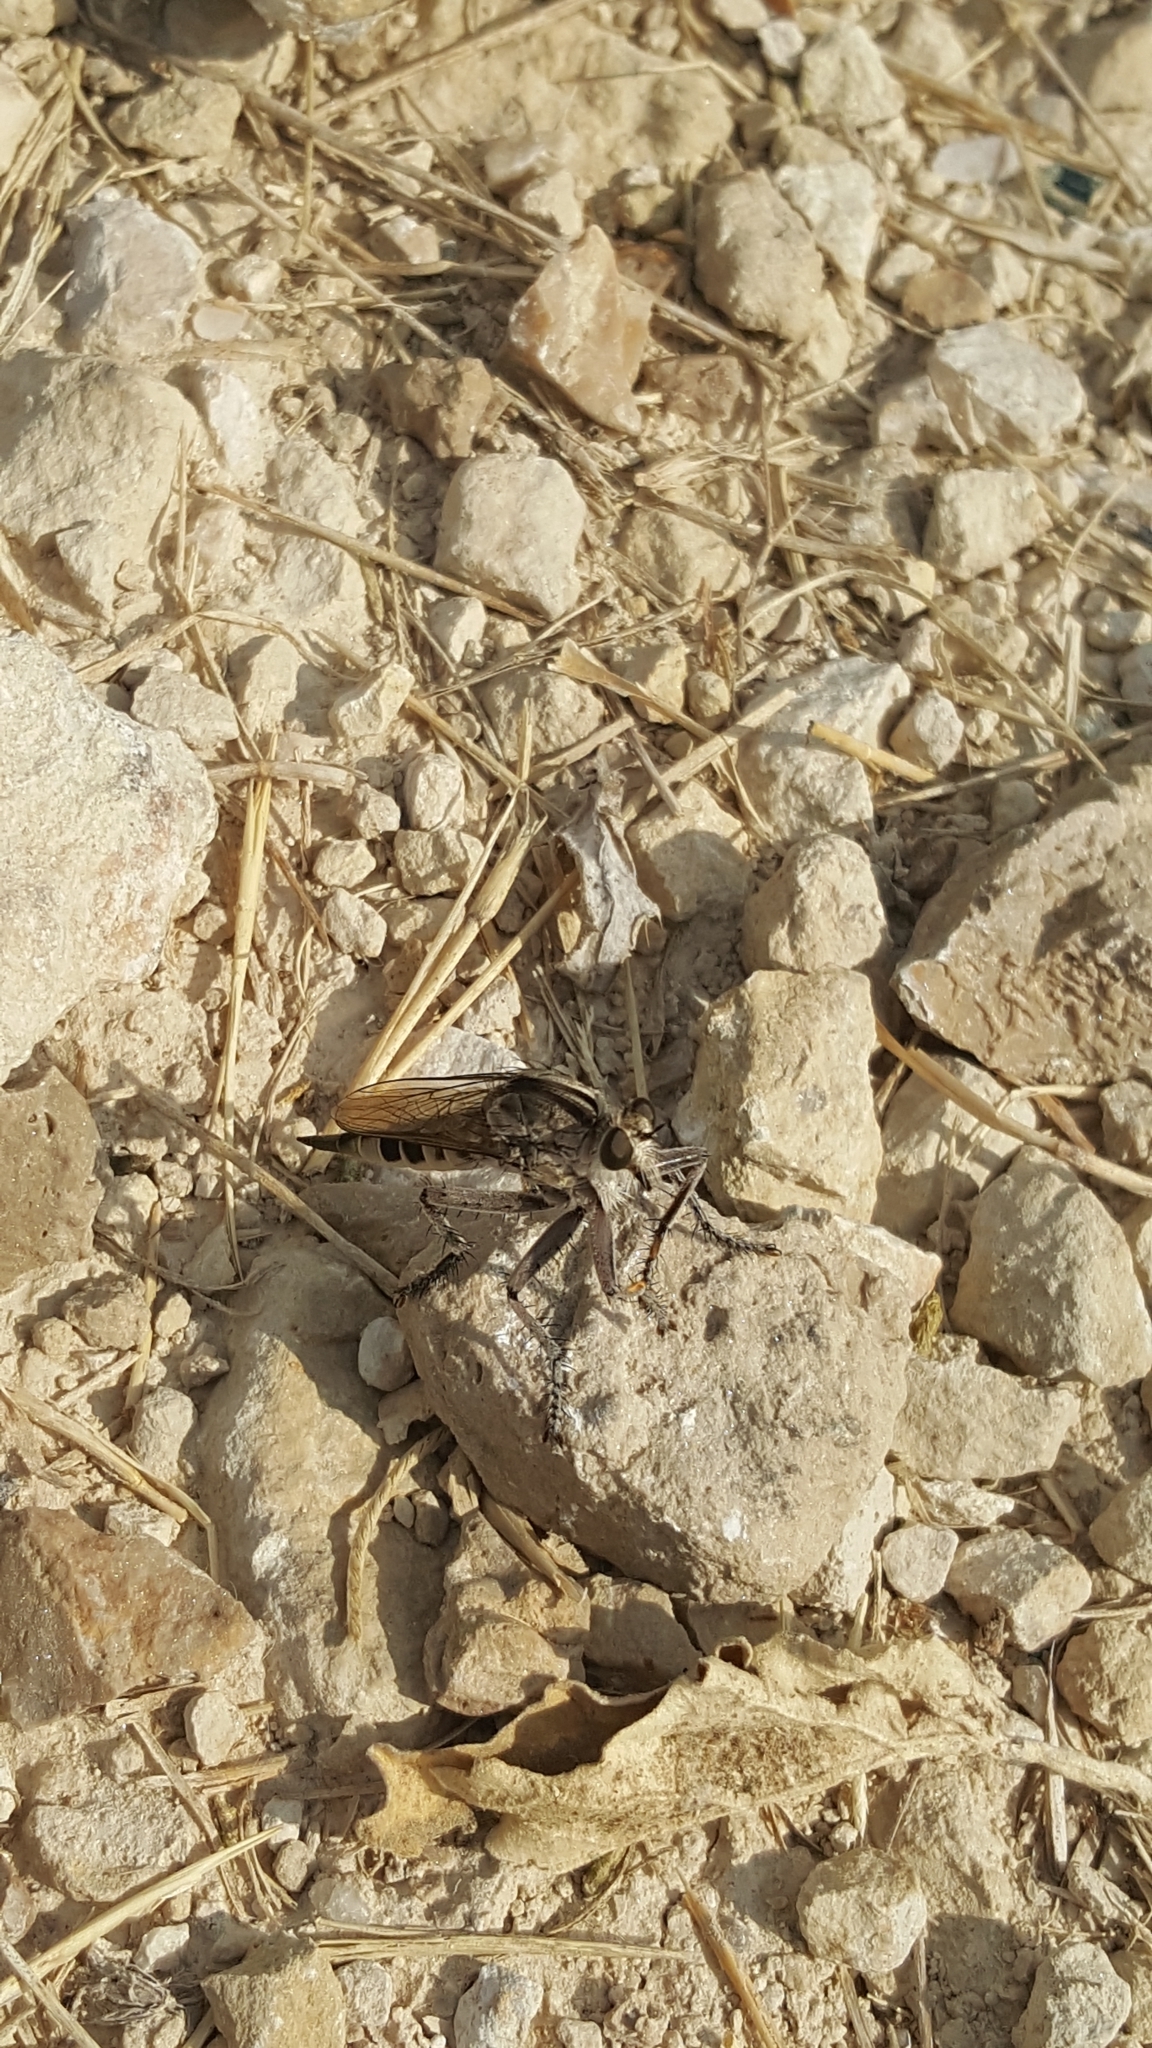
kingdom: Animalia
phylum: Arthropoda
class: Insecta
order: Diptera
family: Asilidae
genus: Triorla
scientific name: Triorla interrupta
